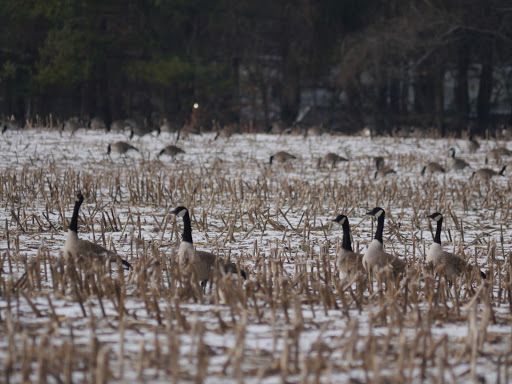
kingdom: Animalia
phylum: Chordata
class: Aves
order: Anseriformes
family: Anatidae
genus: Branta
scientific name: Branta canadensis
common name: Canada goose
